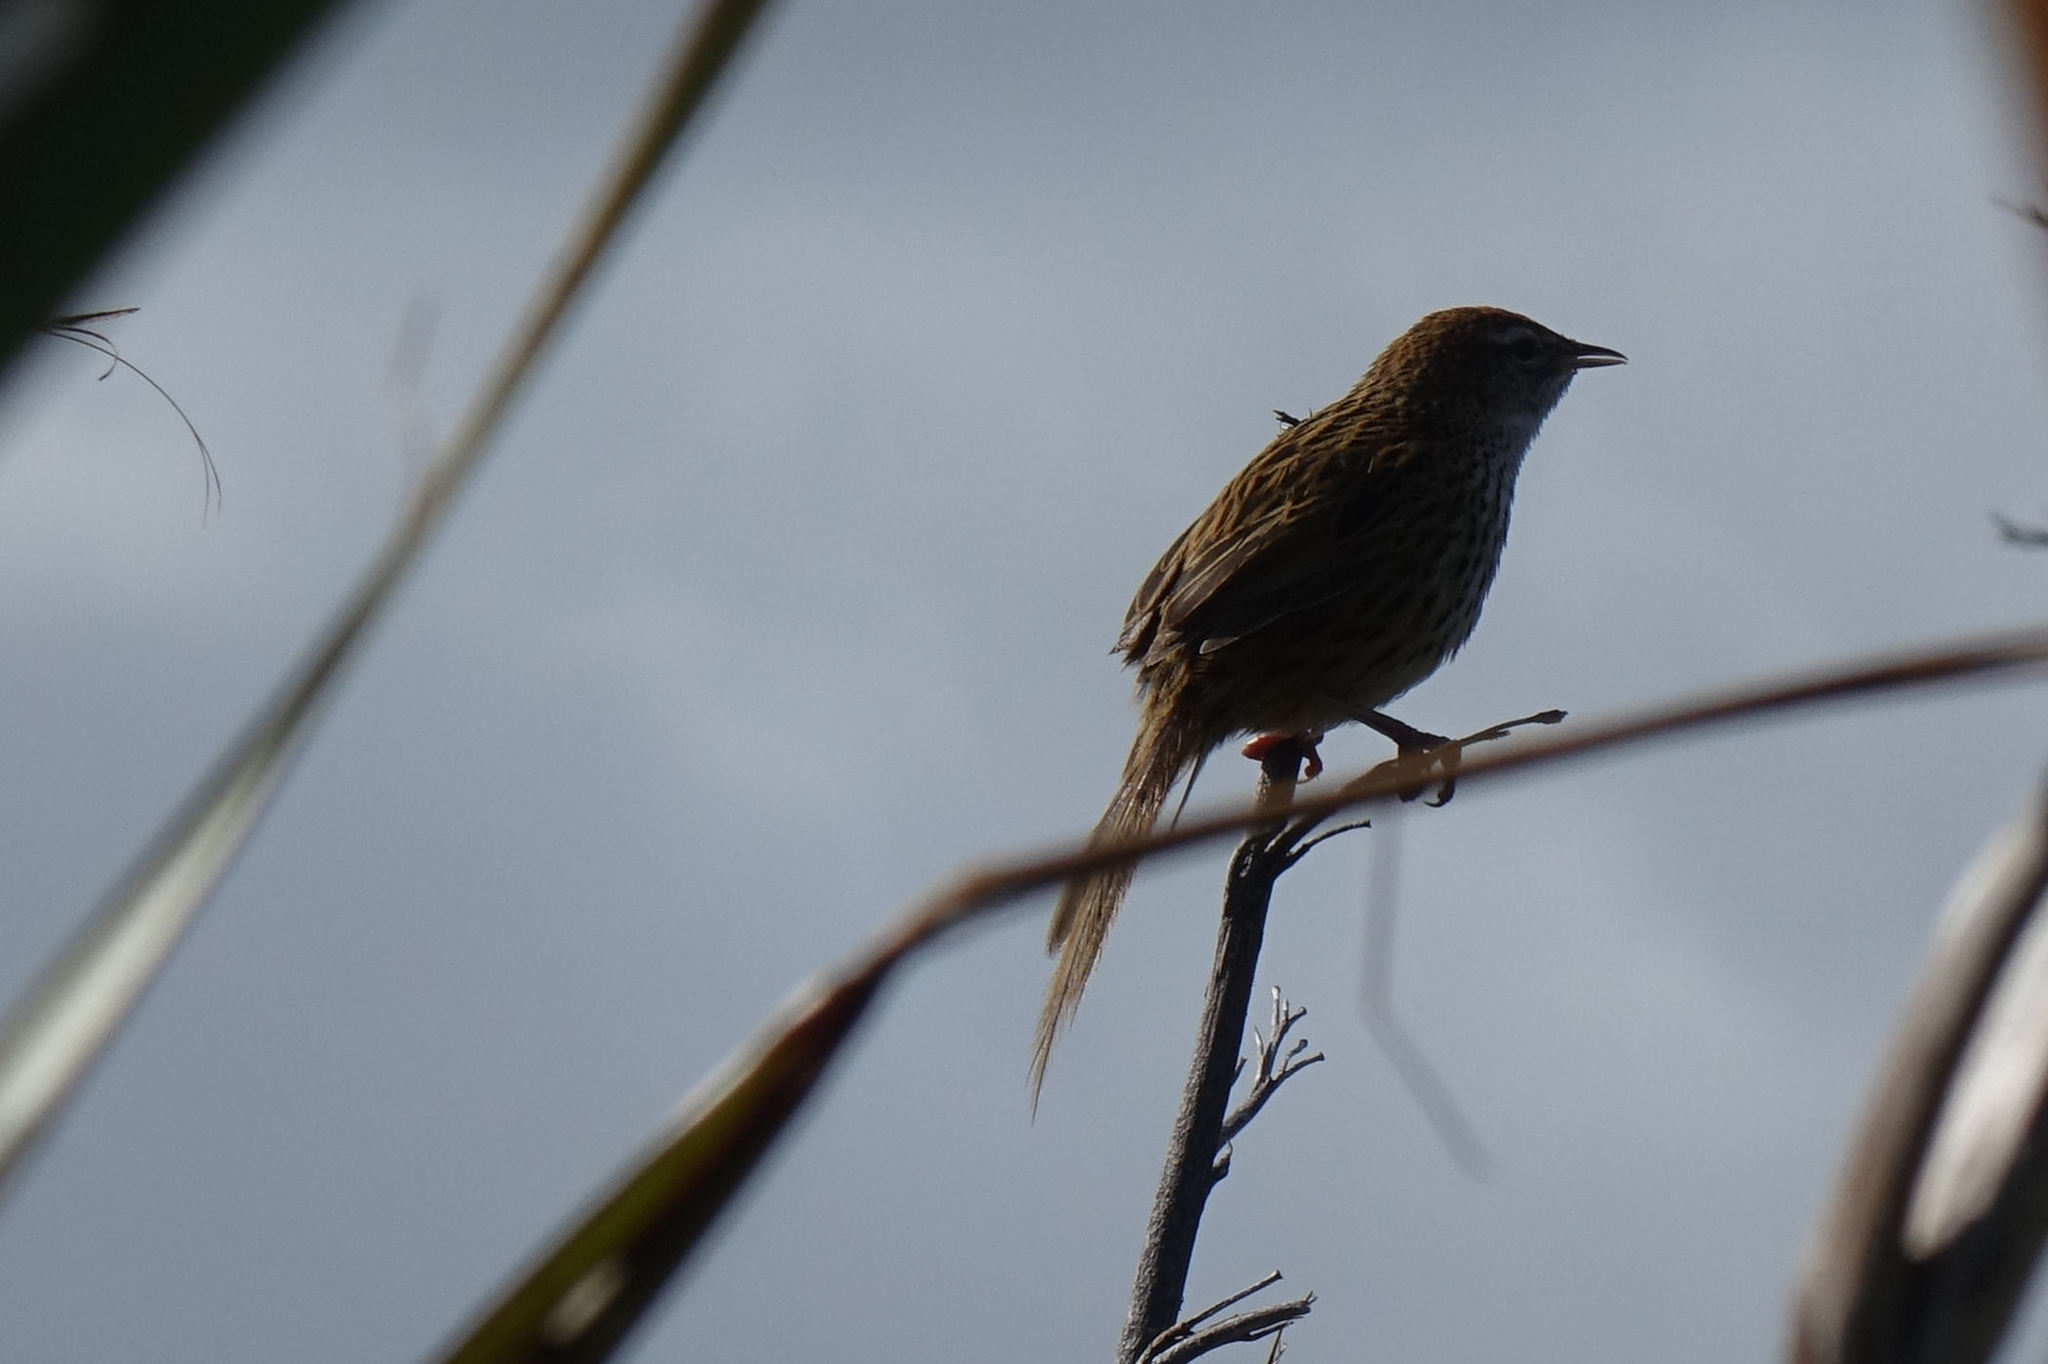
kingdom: Animalia
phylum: Chordata
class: Aves
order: Passeriformes
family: Locustellidae
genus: Poodytes
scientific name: Poodytes punctatus
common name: New zealand fernbird
